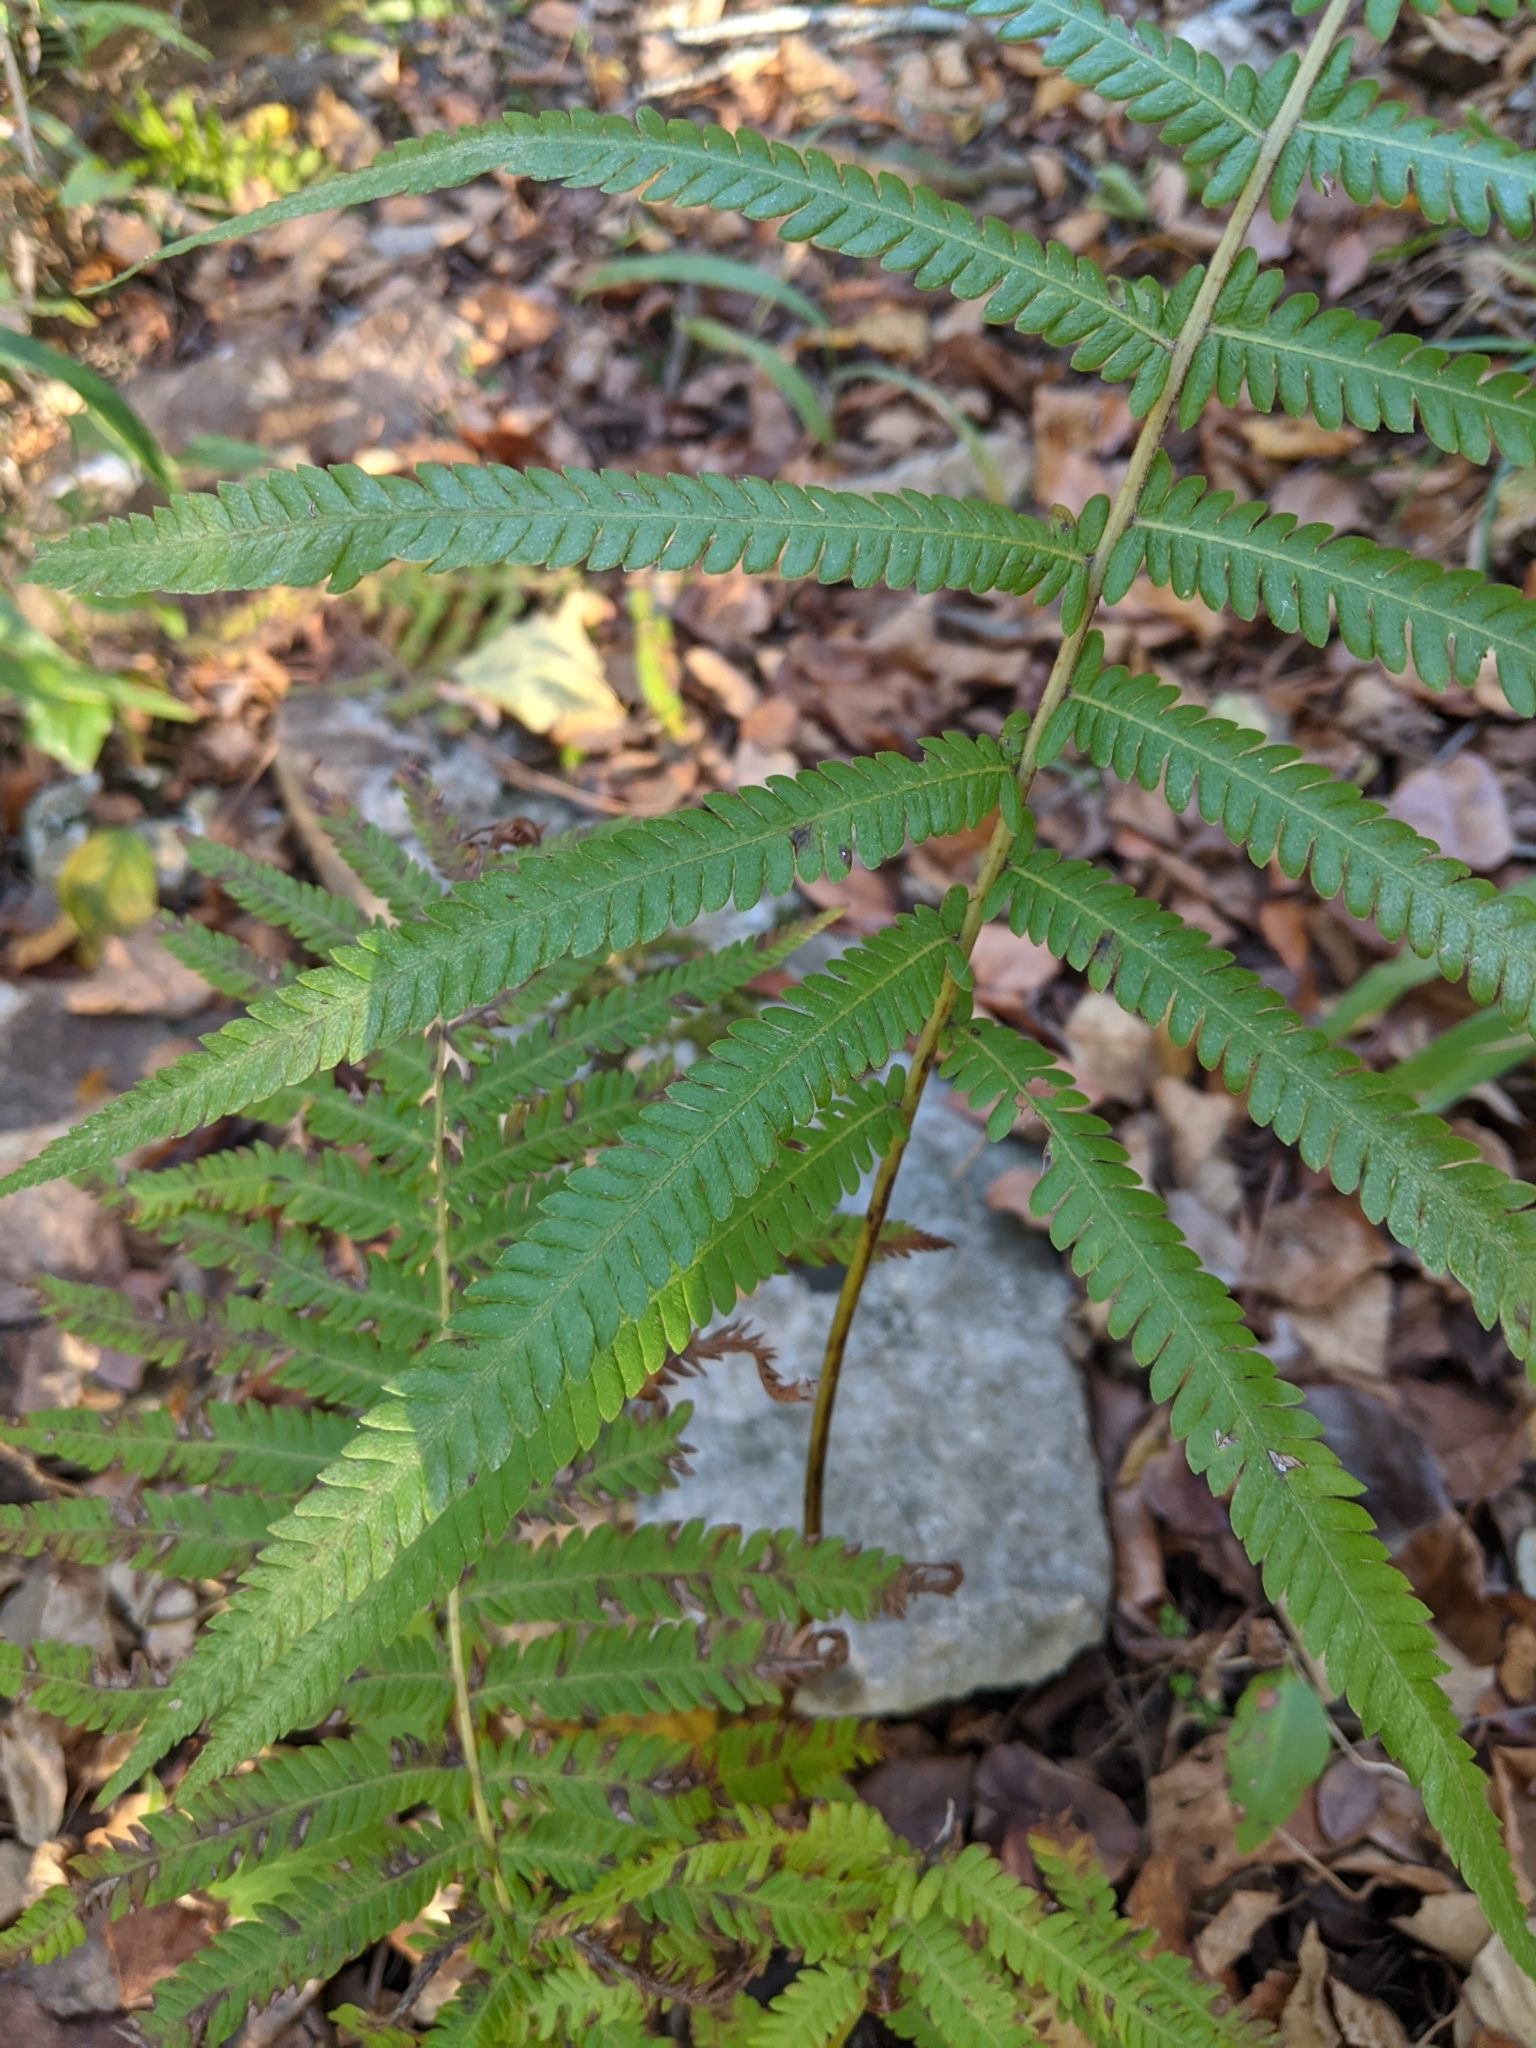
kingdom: Plantae
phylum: Tracheophyta
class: Polypodiopsida
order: Polypodiales
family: Thelypteridaceae
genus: Pelazoneuron
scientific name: Pelazoneuron ovatum
